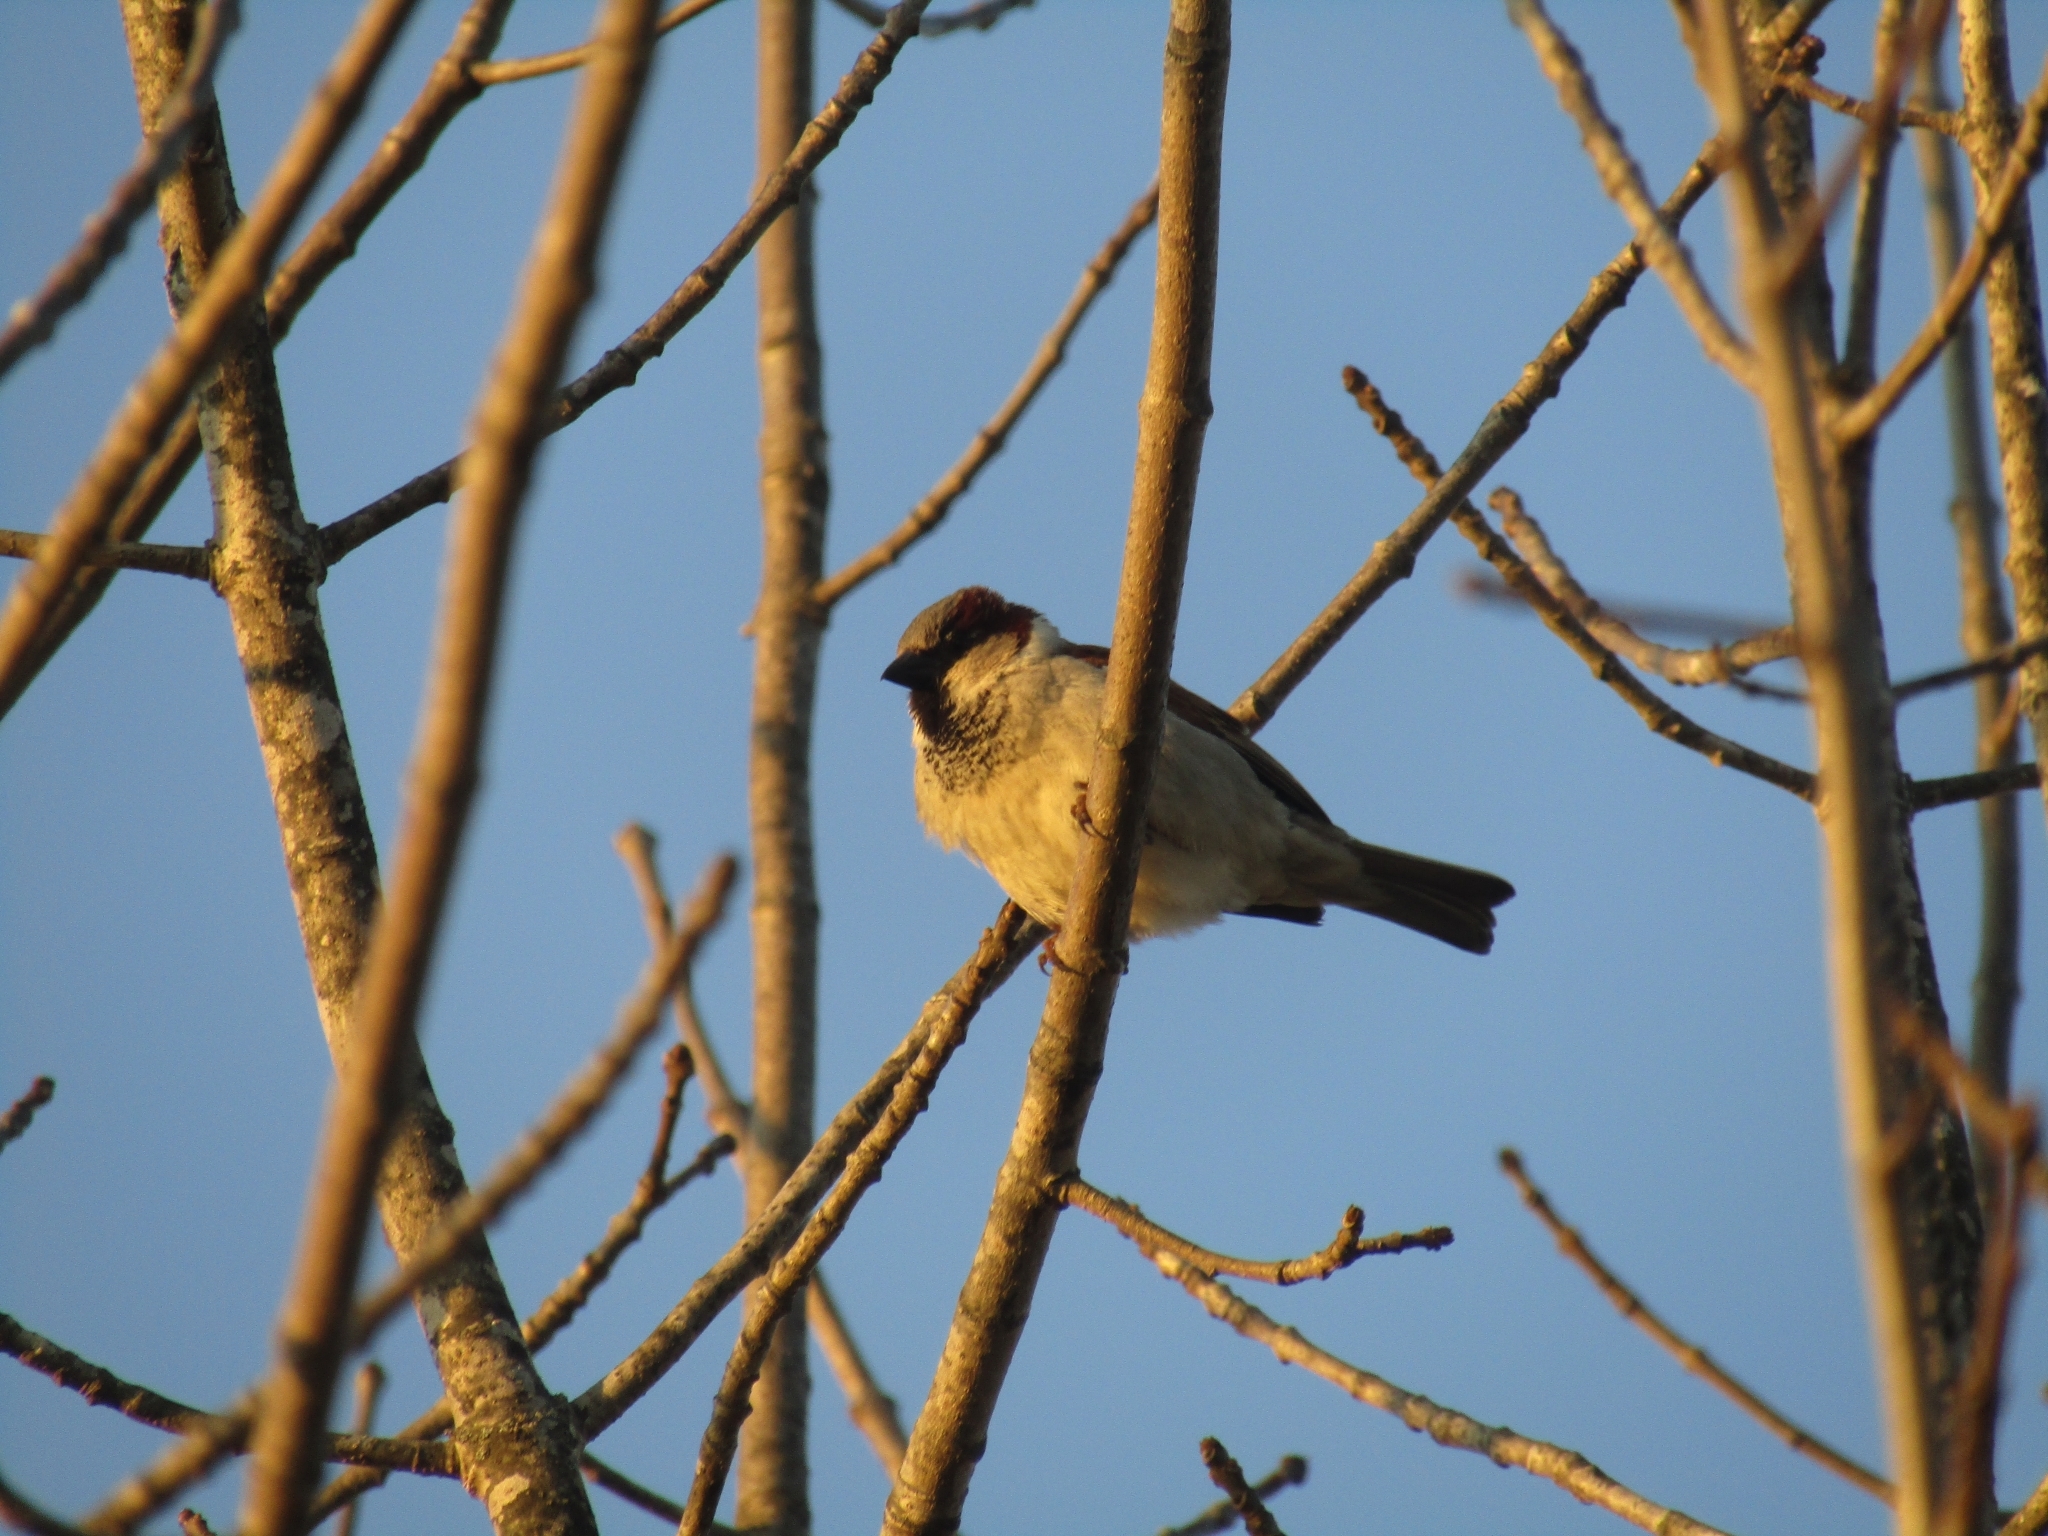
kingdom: Animalia
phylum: Chordata
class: Aves
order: Passeriformes
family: Passeridae
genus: Passer
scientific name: Passer domesticus
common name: House sparrow
